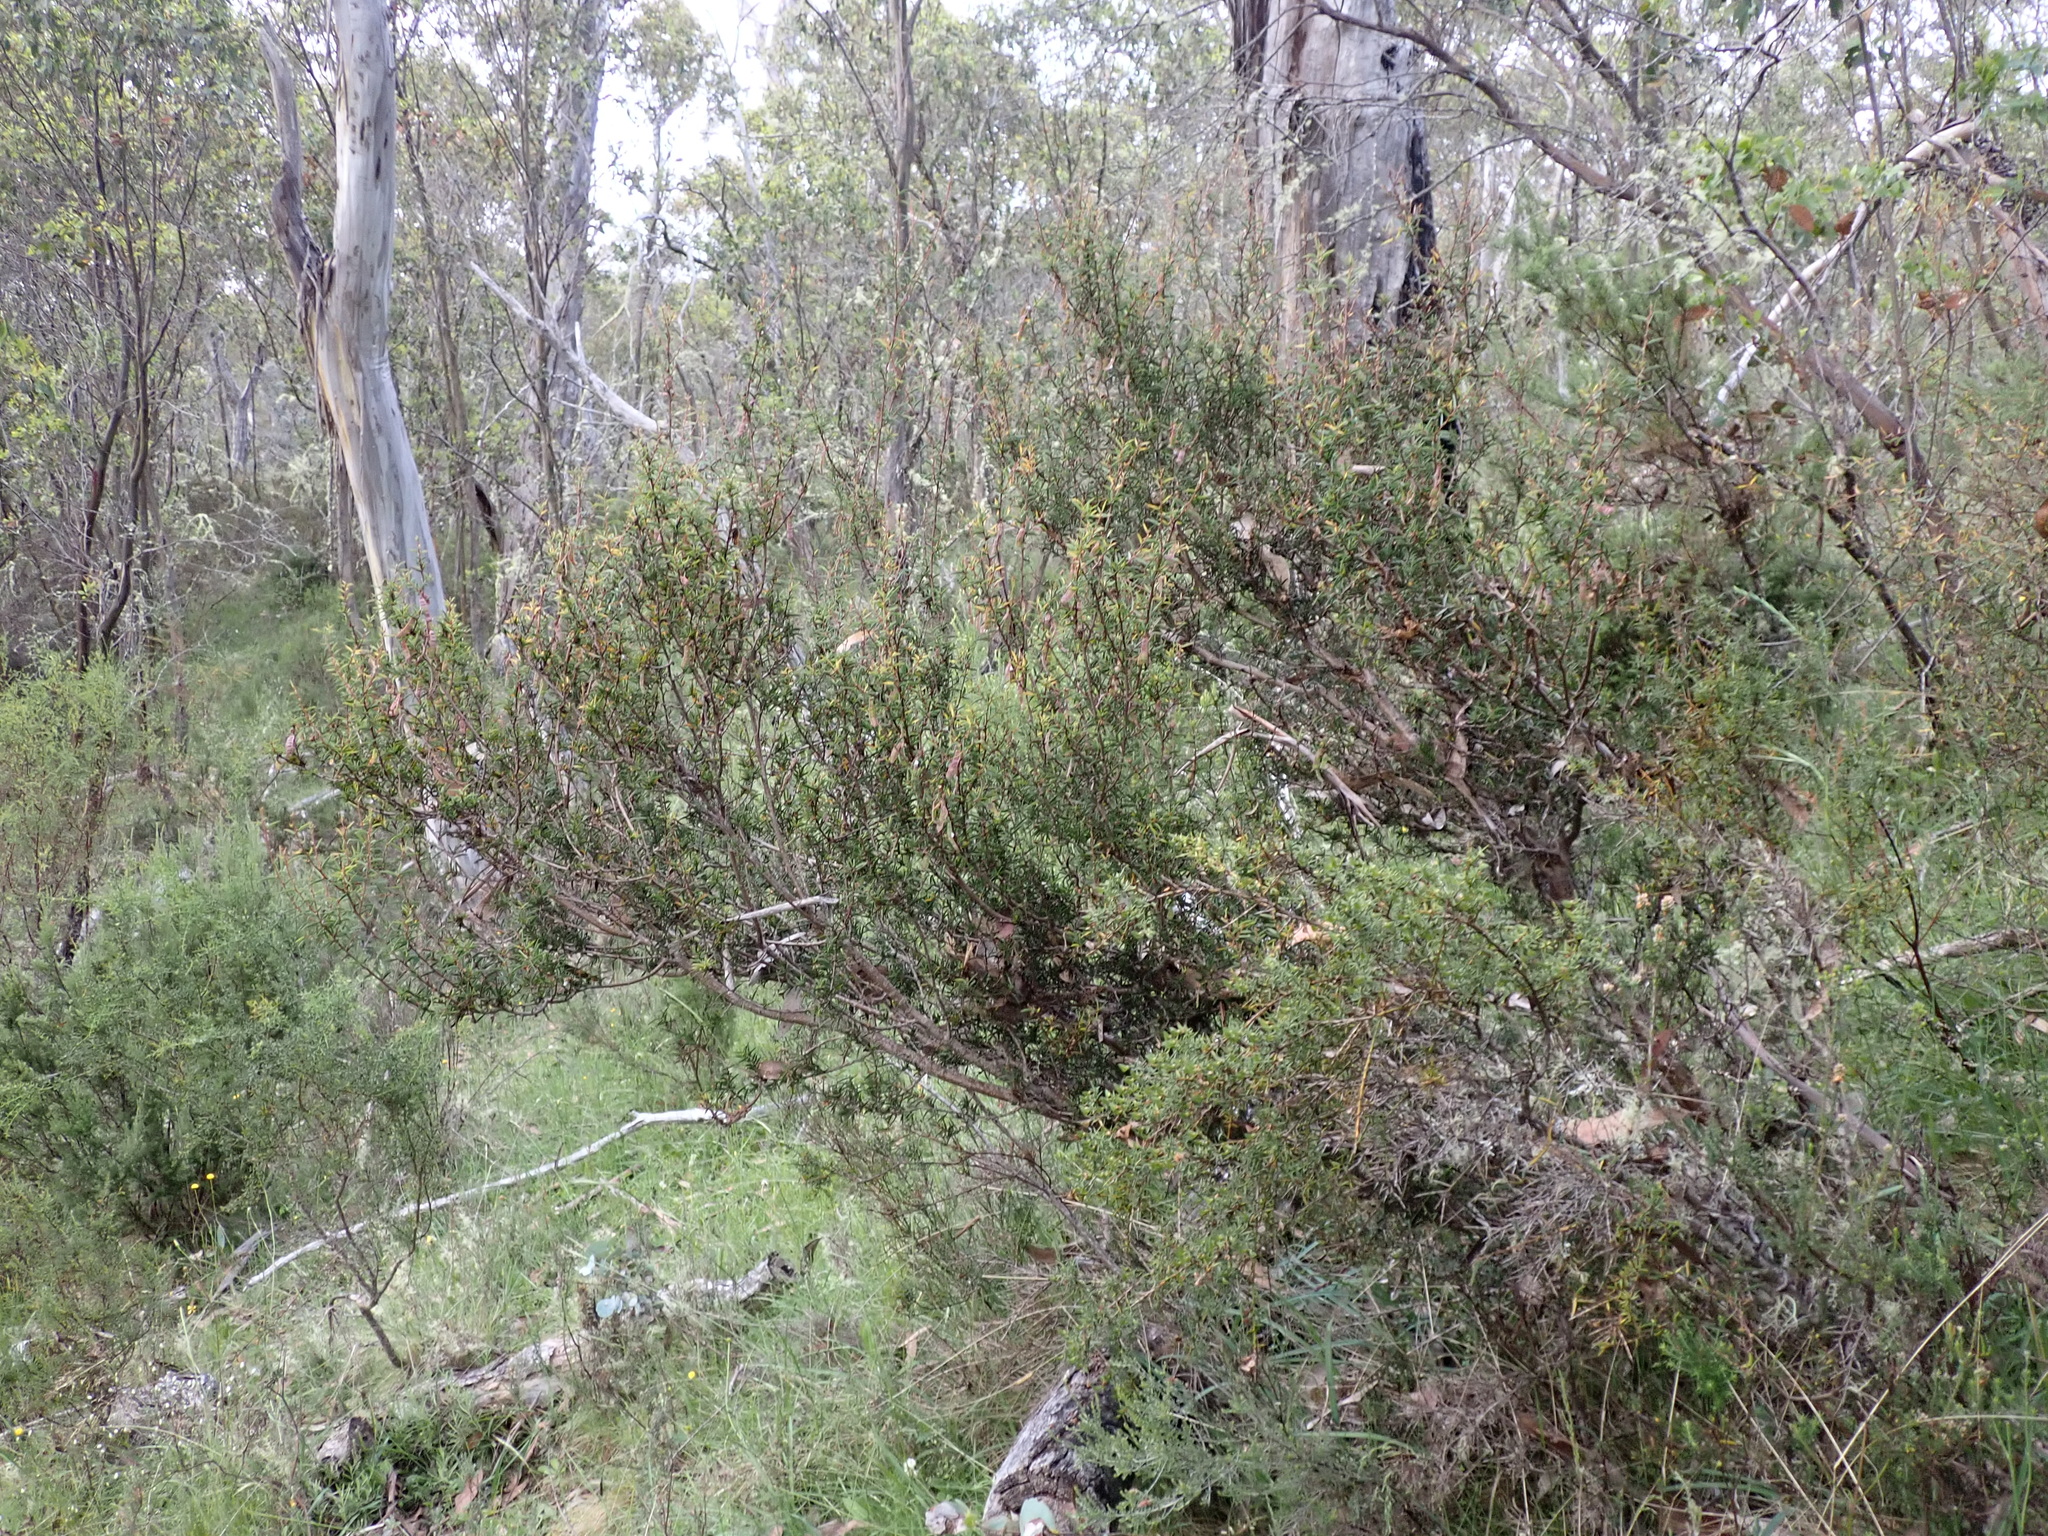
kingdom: Plantae
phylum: Tracheophyta
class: Magnoliopsida
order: Fabales
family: Fabaceae
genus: Acacia
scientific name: Acacia siculiformis
